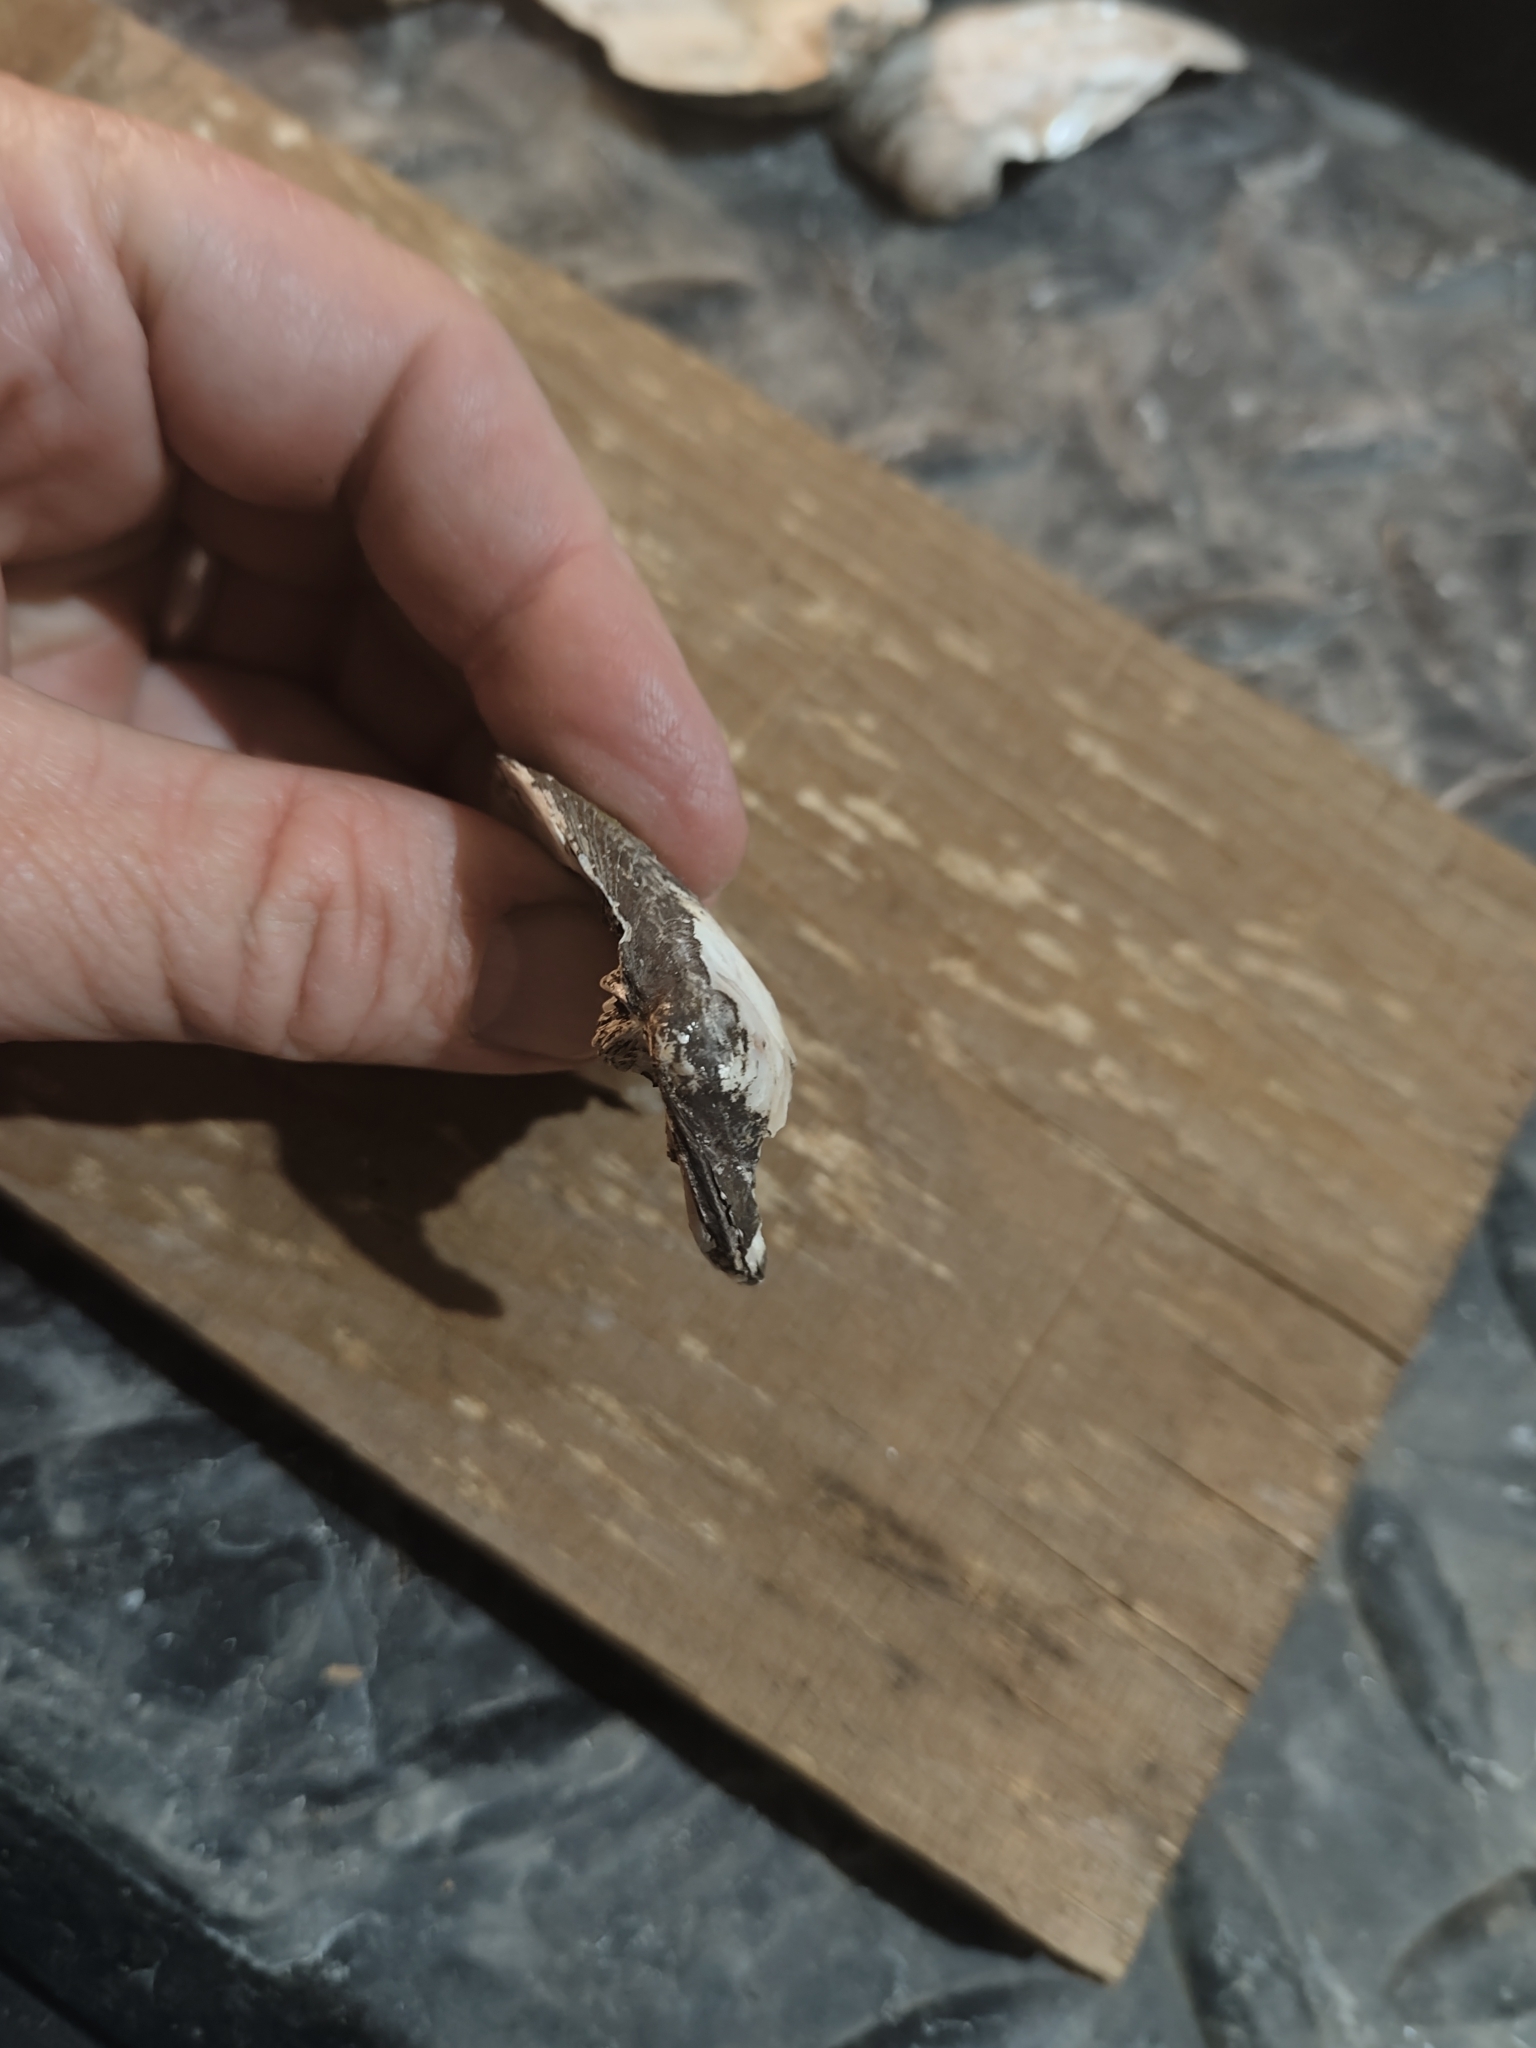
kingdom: Animalia
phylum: Mollusca
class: Bivalvia
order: Unionida
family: Unionidae
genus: Amblema
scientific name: Amblema plicata
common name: Threeridge
